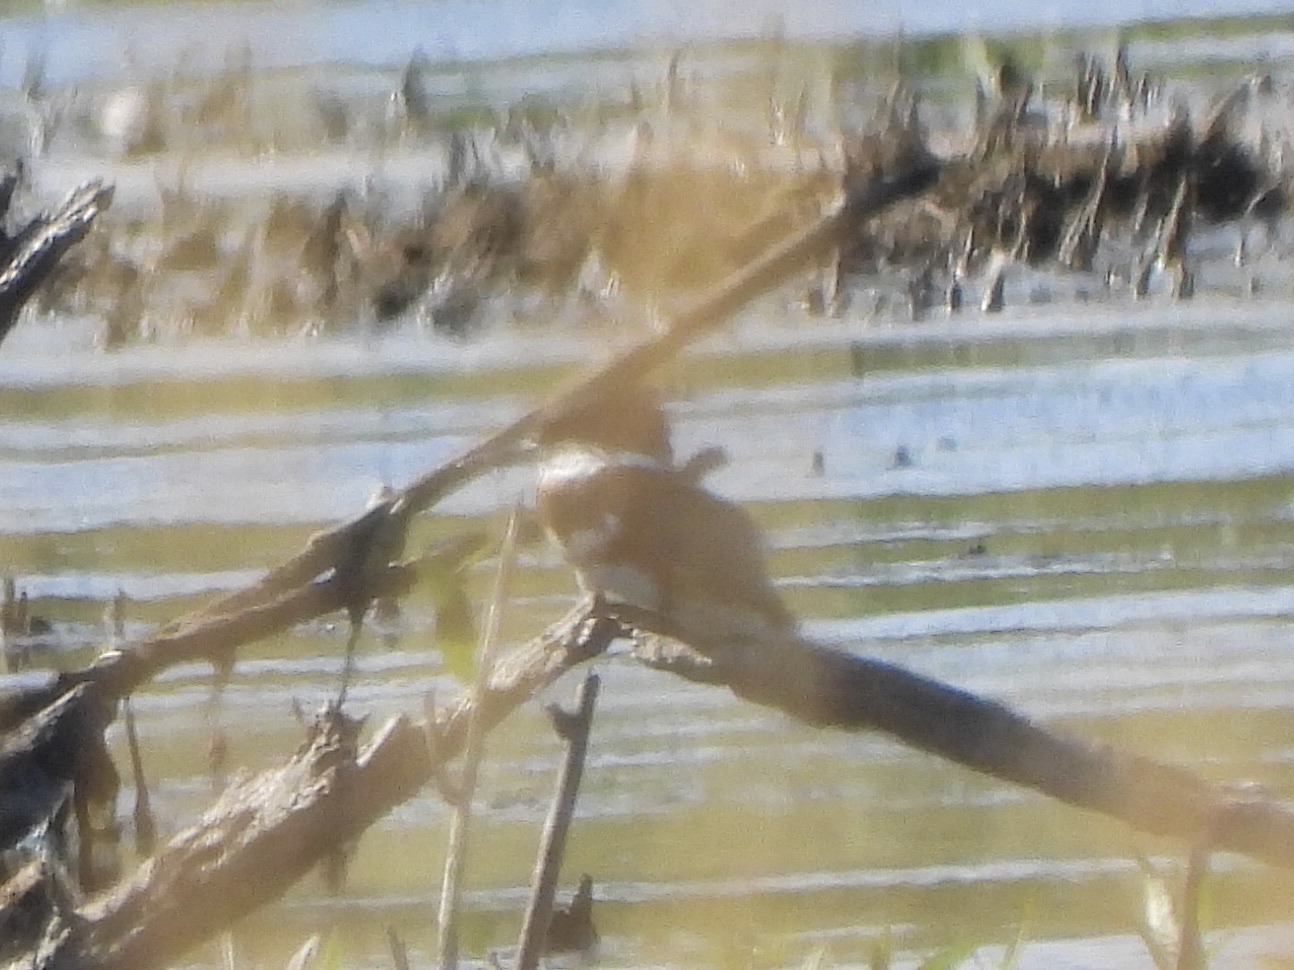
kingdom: Animalia
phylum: Chordata
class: Aves
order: Coraciiformes
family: Alcedinidae
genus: Megaceryle
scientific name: Megaceryle alcyon
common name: Belted kingfisher
